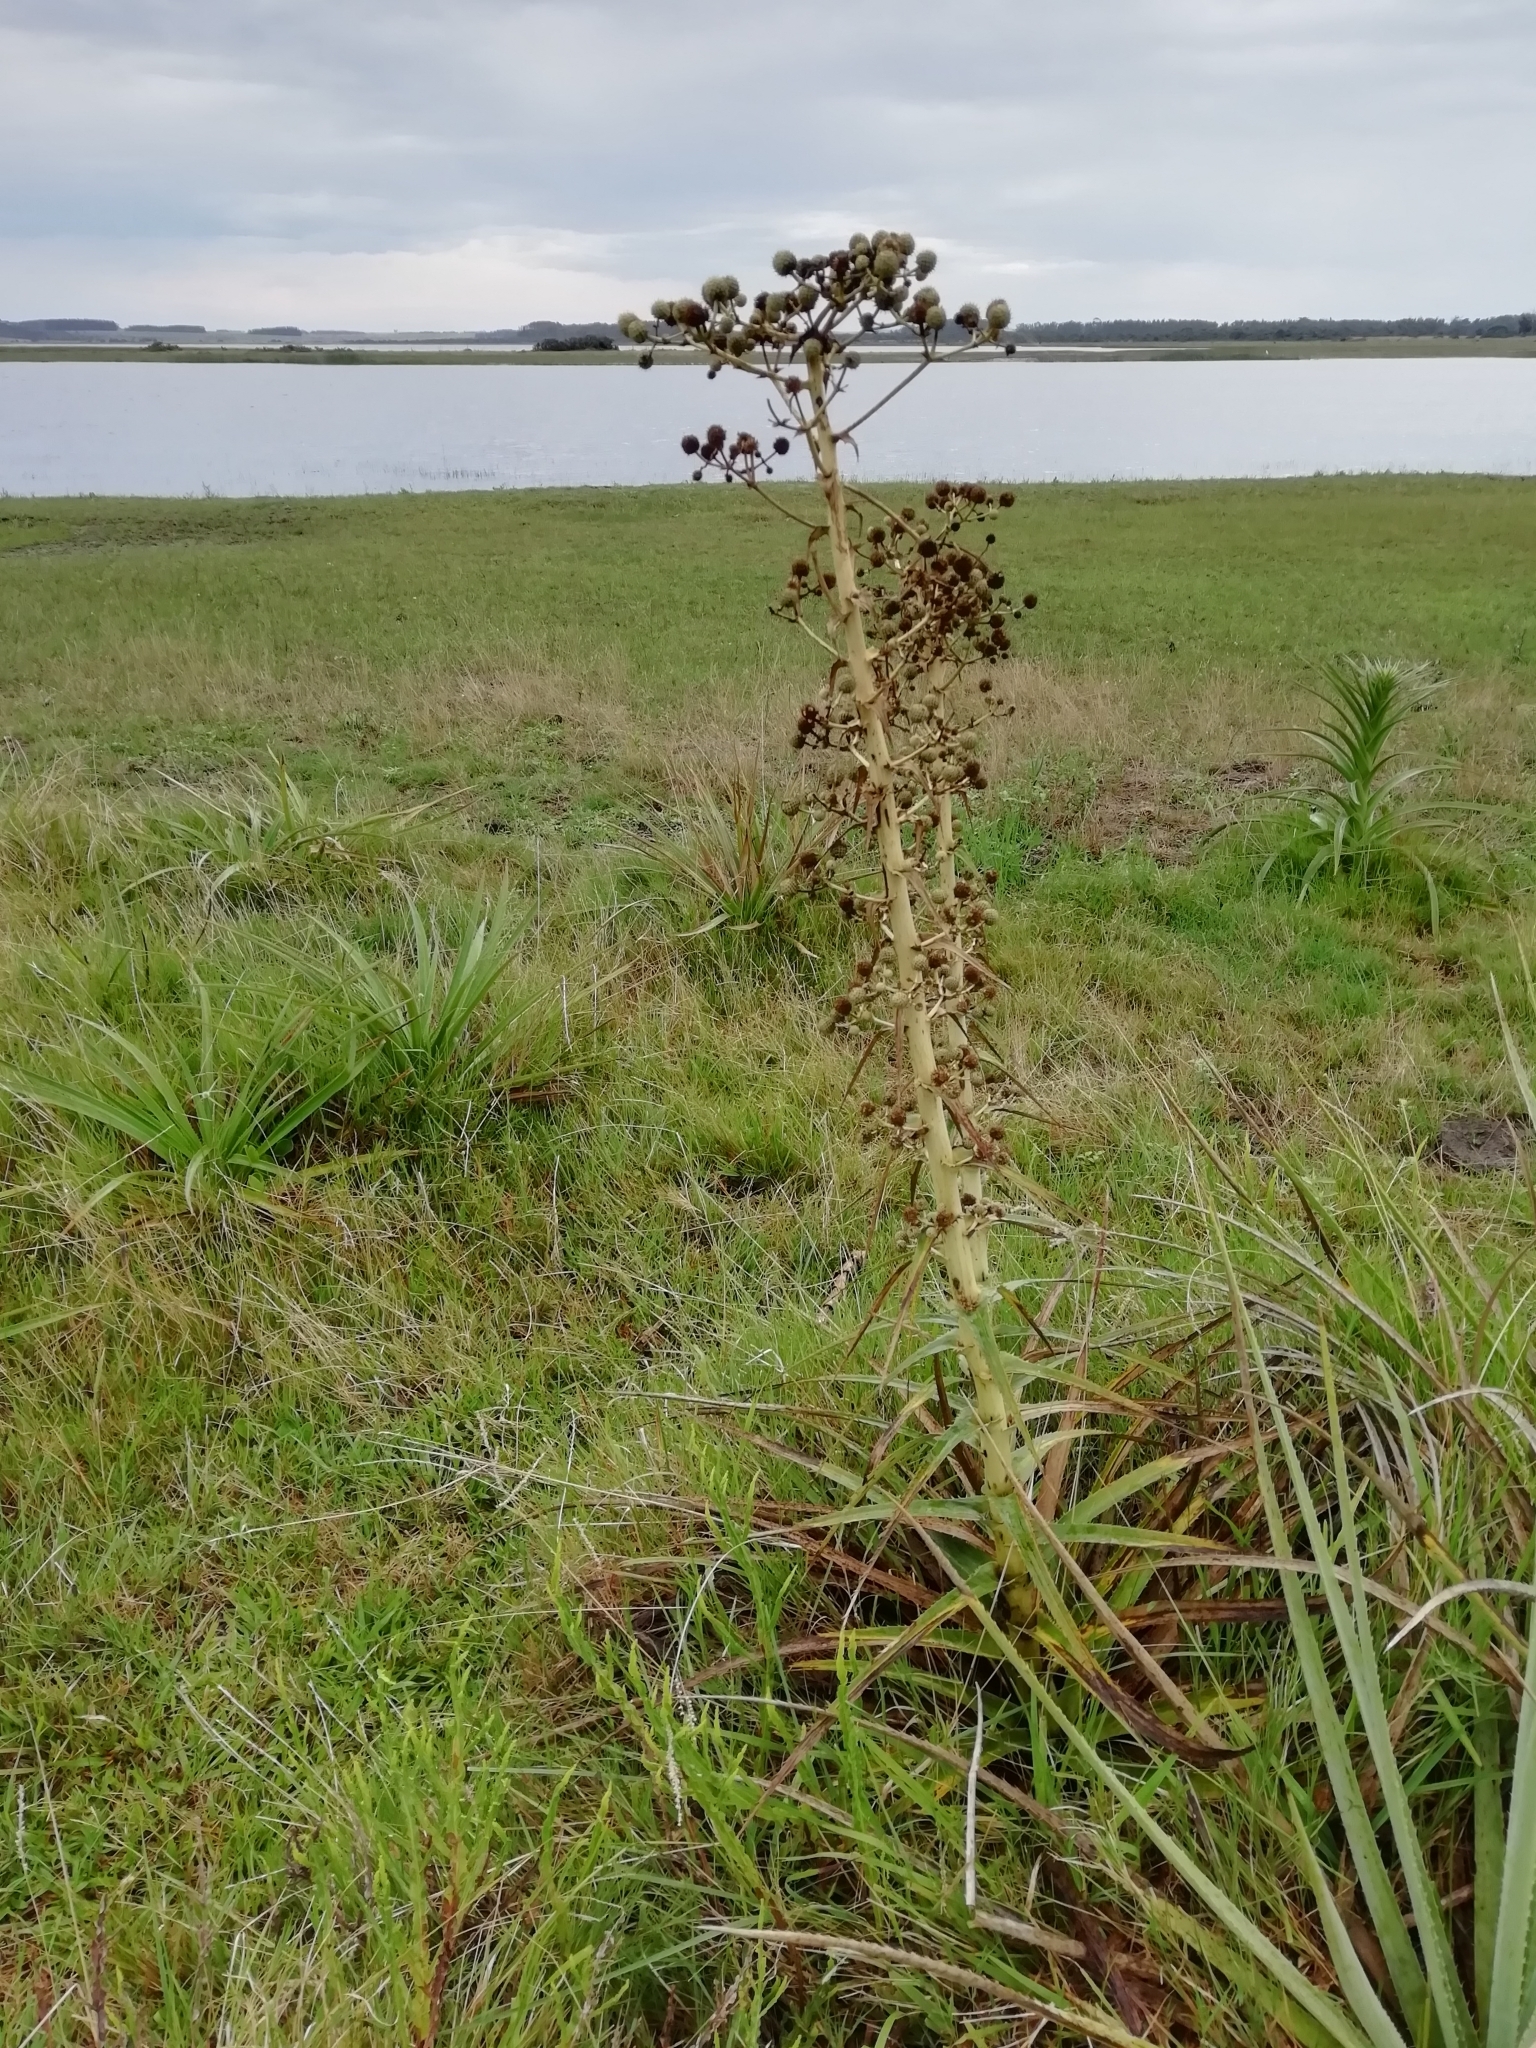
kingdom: Plantae
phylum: Tracheophyta
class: Magnoliopsida
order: Apiales
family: Apiaceae
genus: Eryngium
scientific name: Eryngium horridum
